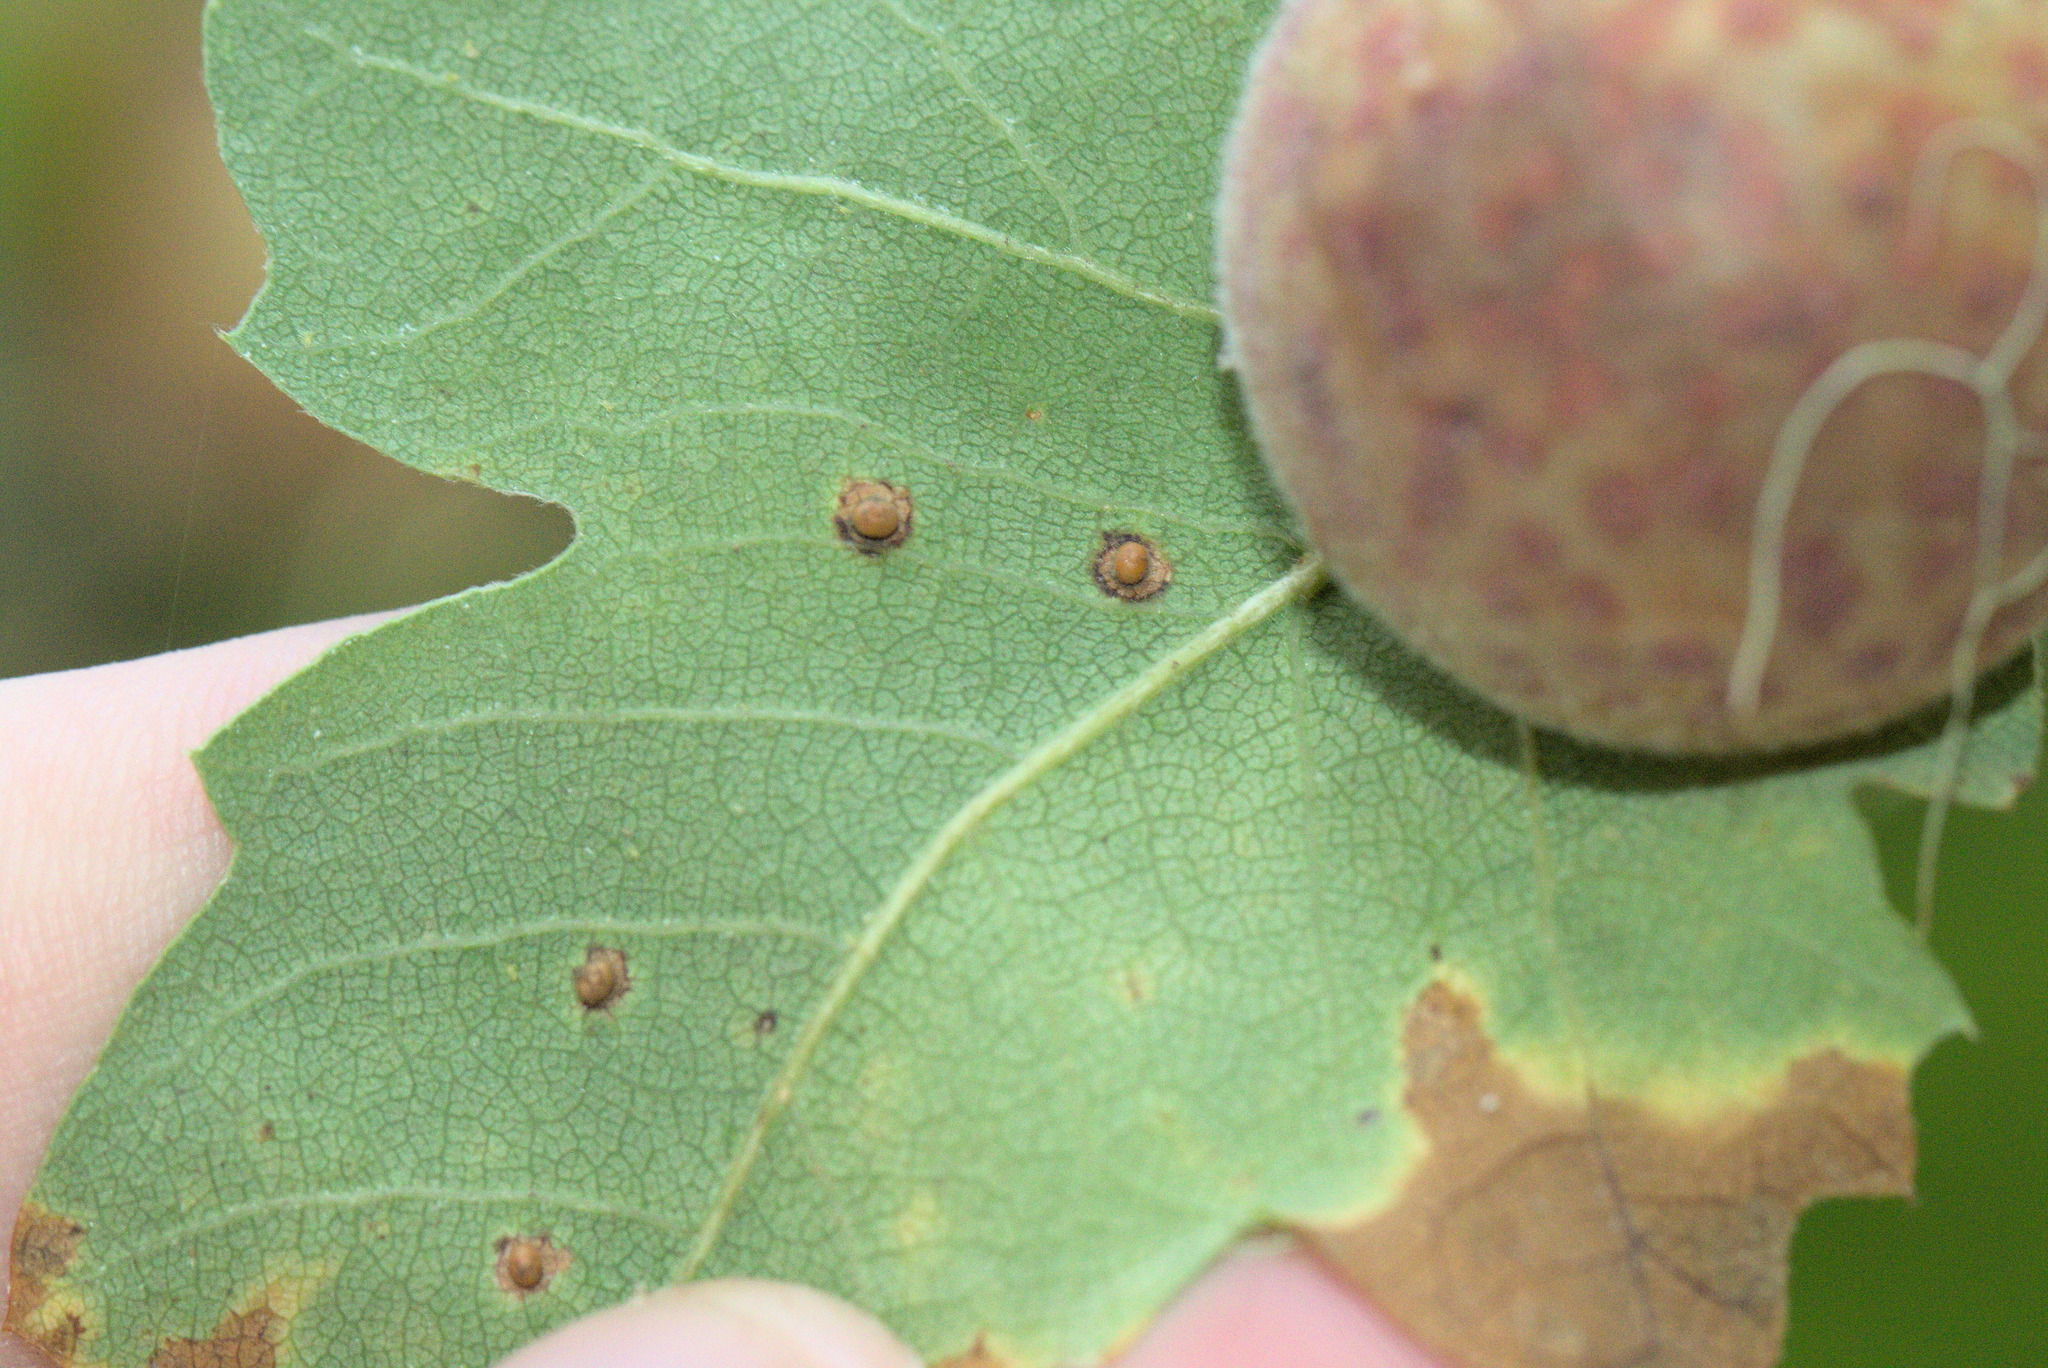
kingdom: Animalia
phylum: Arthropoda
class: Insecta
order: Hymenoptera
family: Cynipidae
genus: Neuroterus
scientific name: Neuroterus saltarius
